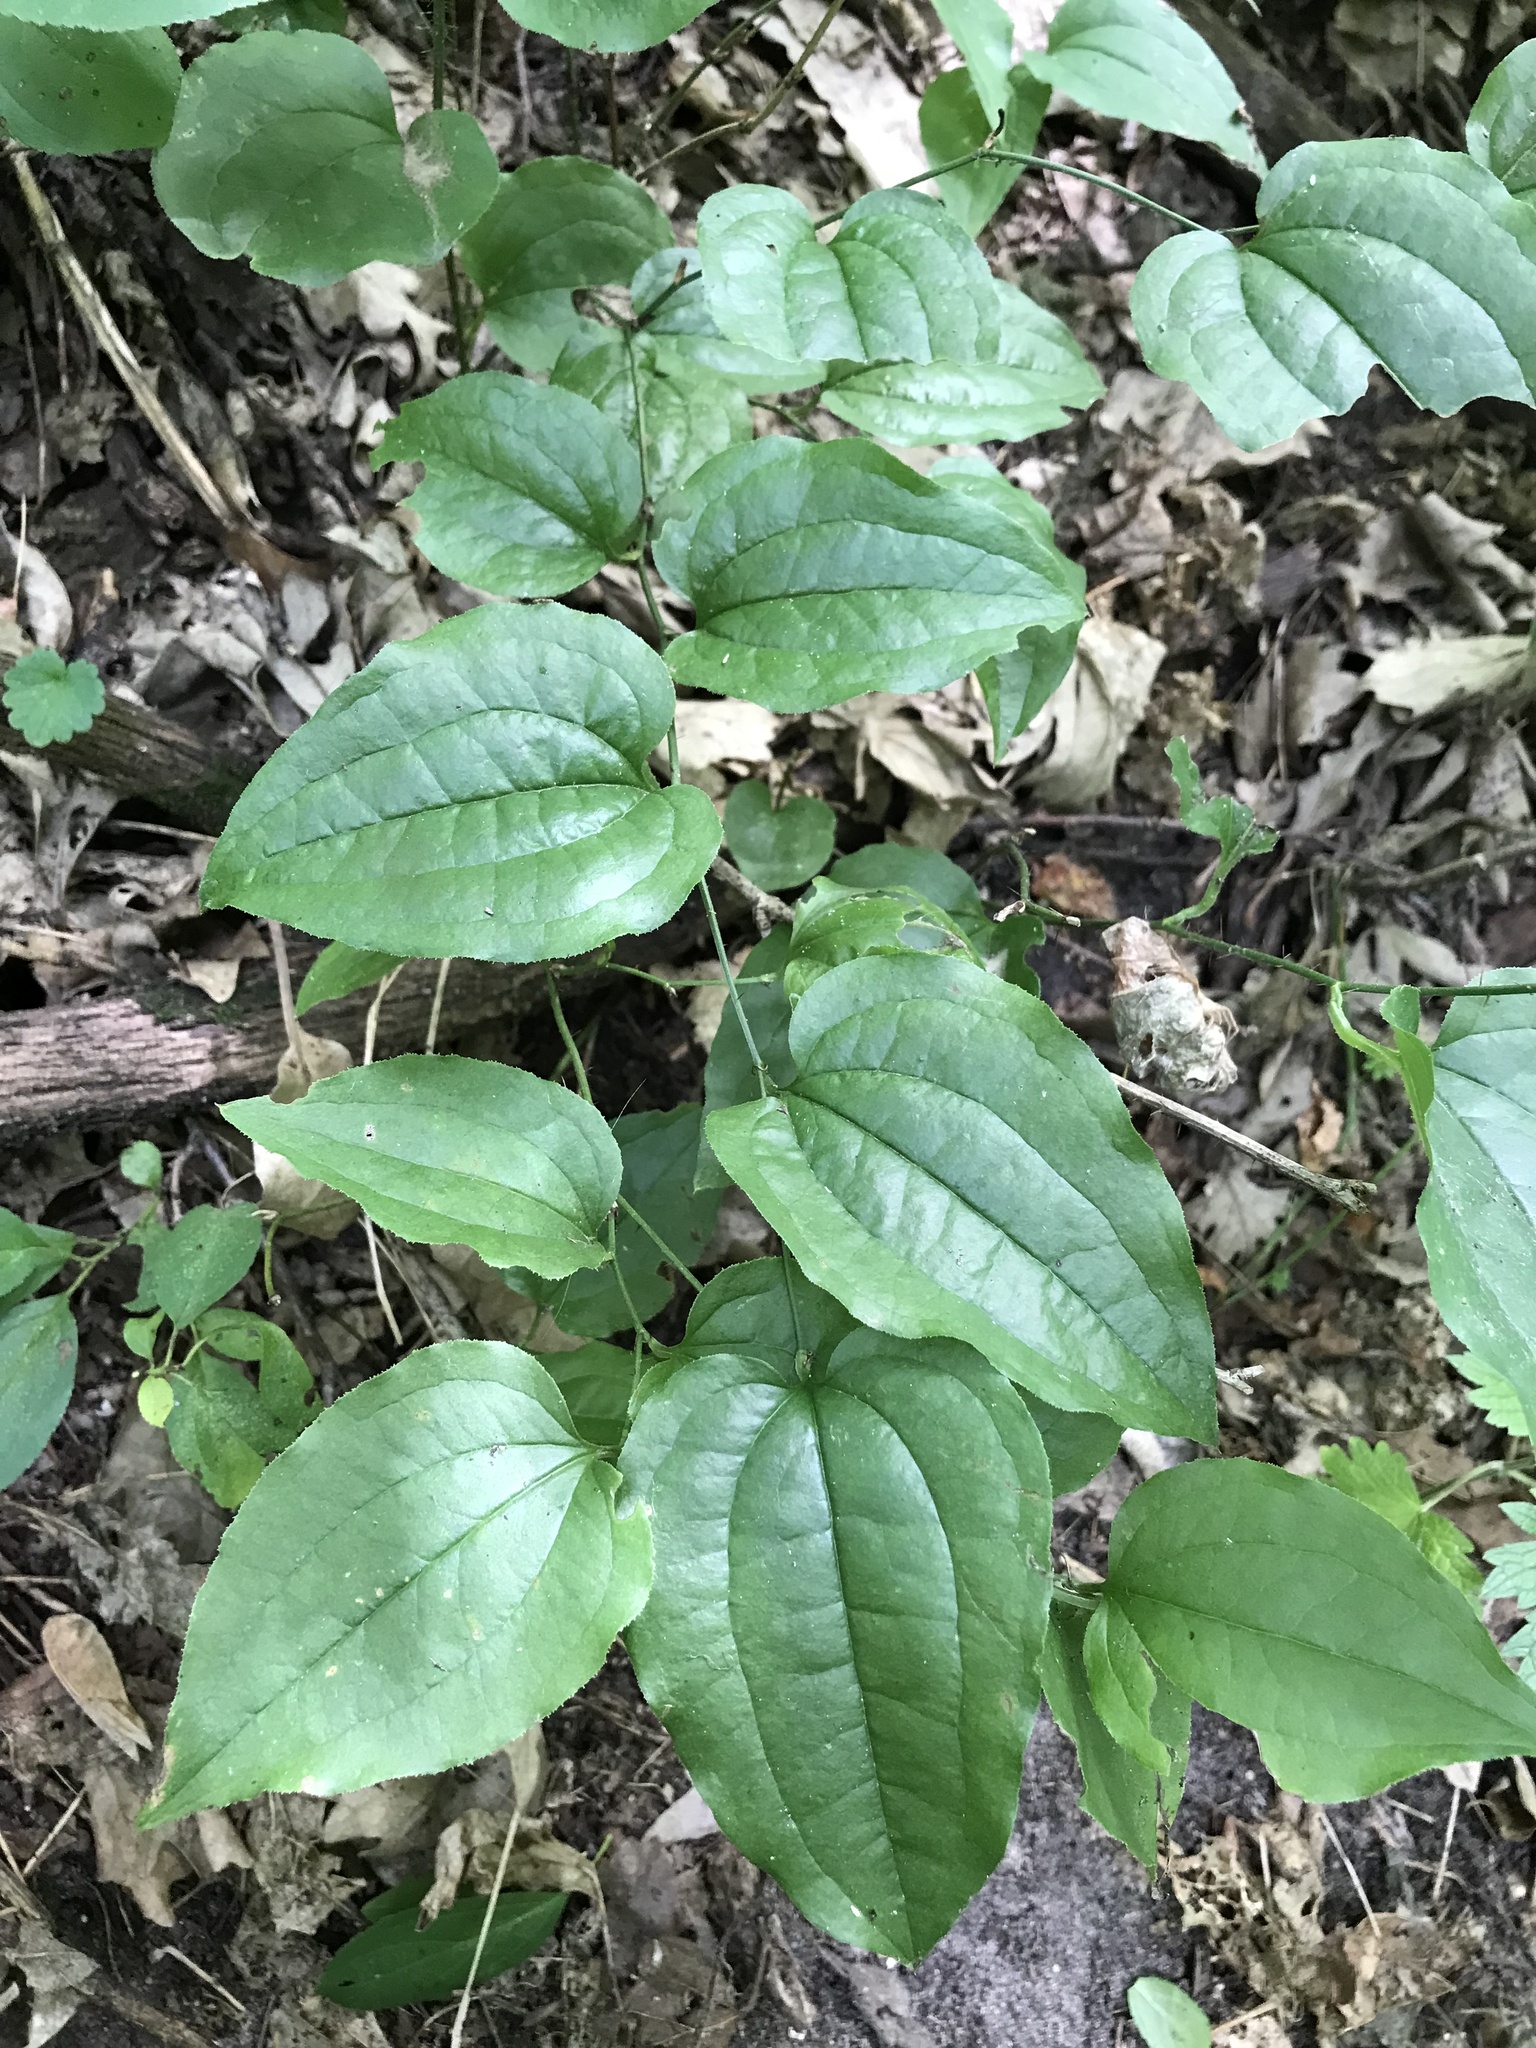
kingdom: Plantae
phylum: Tracheophyta
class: Liliopsida
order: Liliales
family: Smilacaceae
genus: Smilax
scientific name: Smilax tamnoides
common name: Hellfetter
